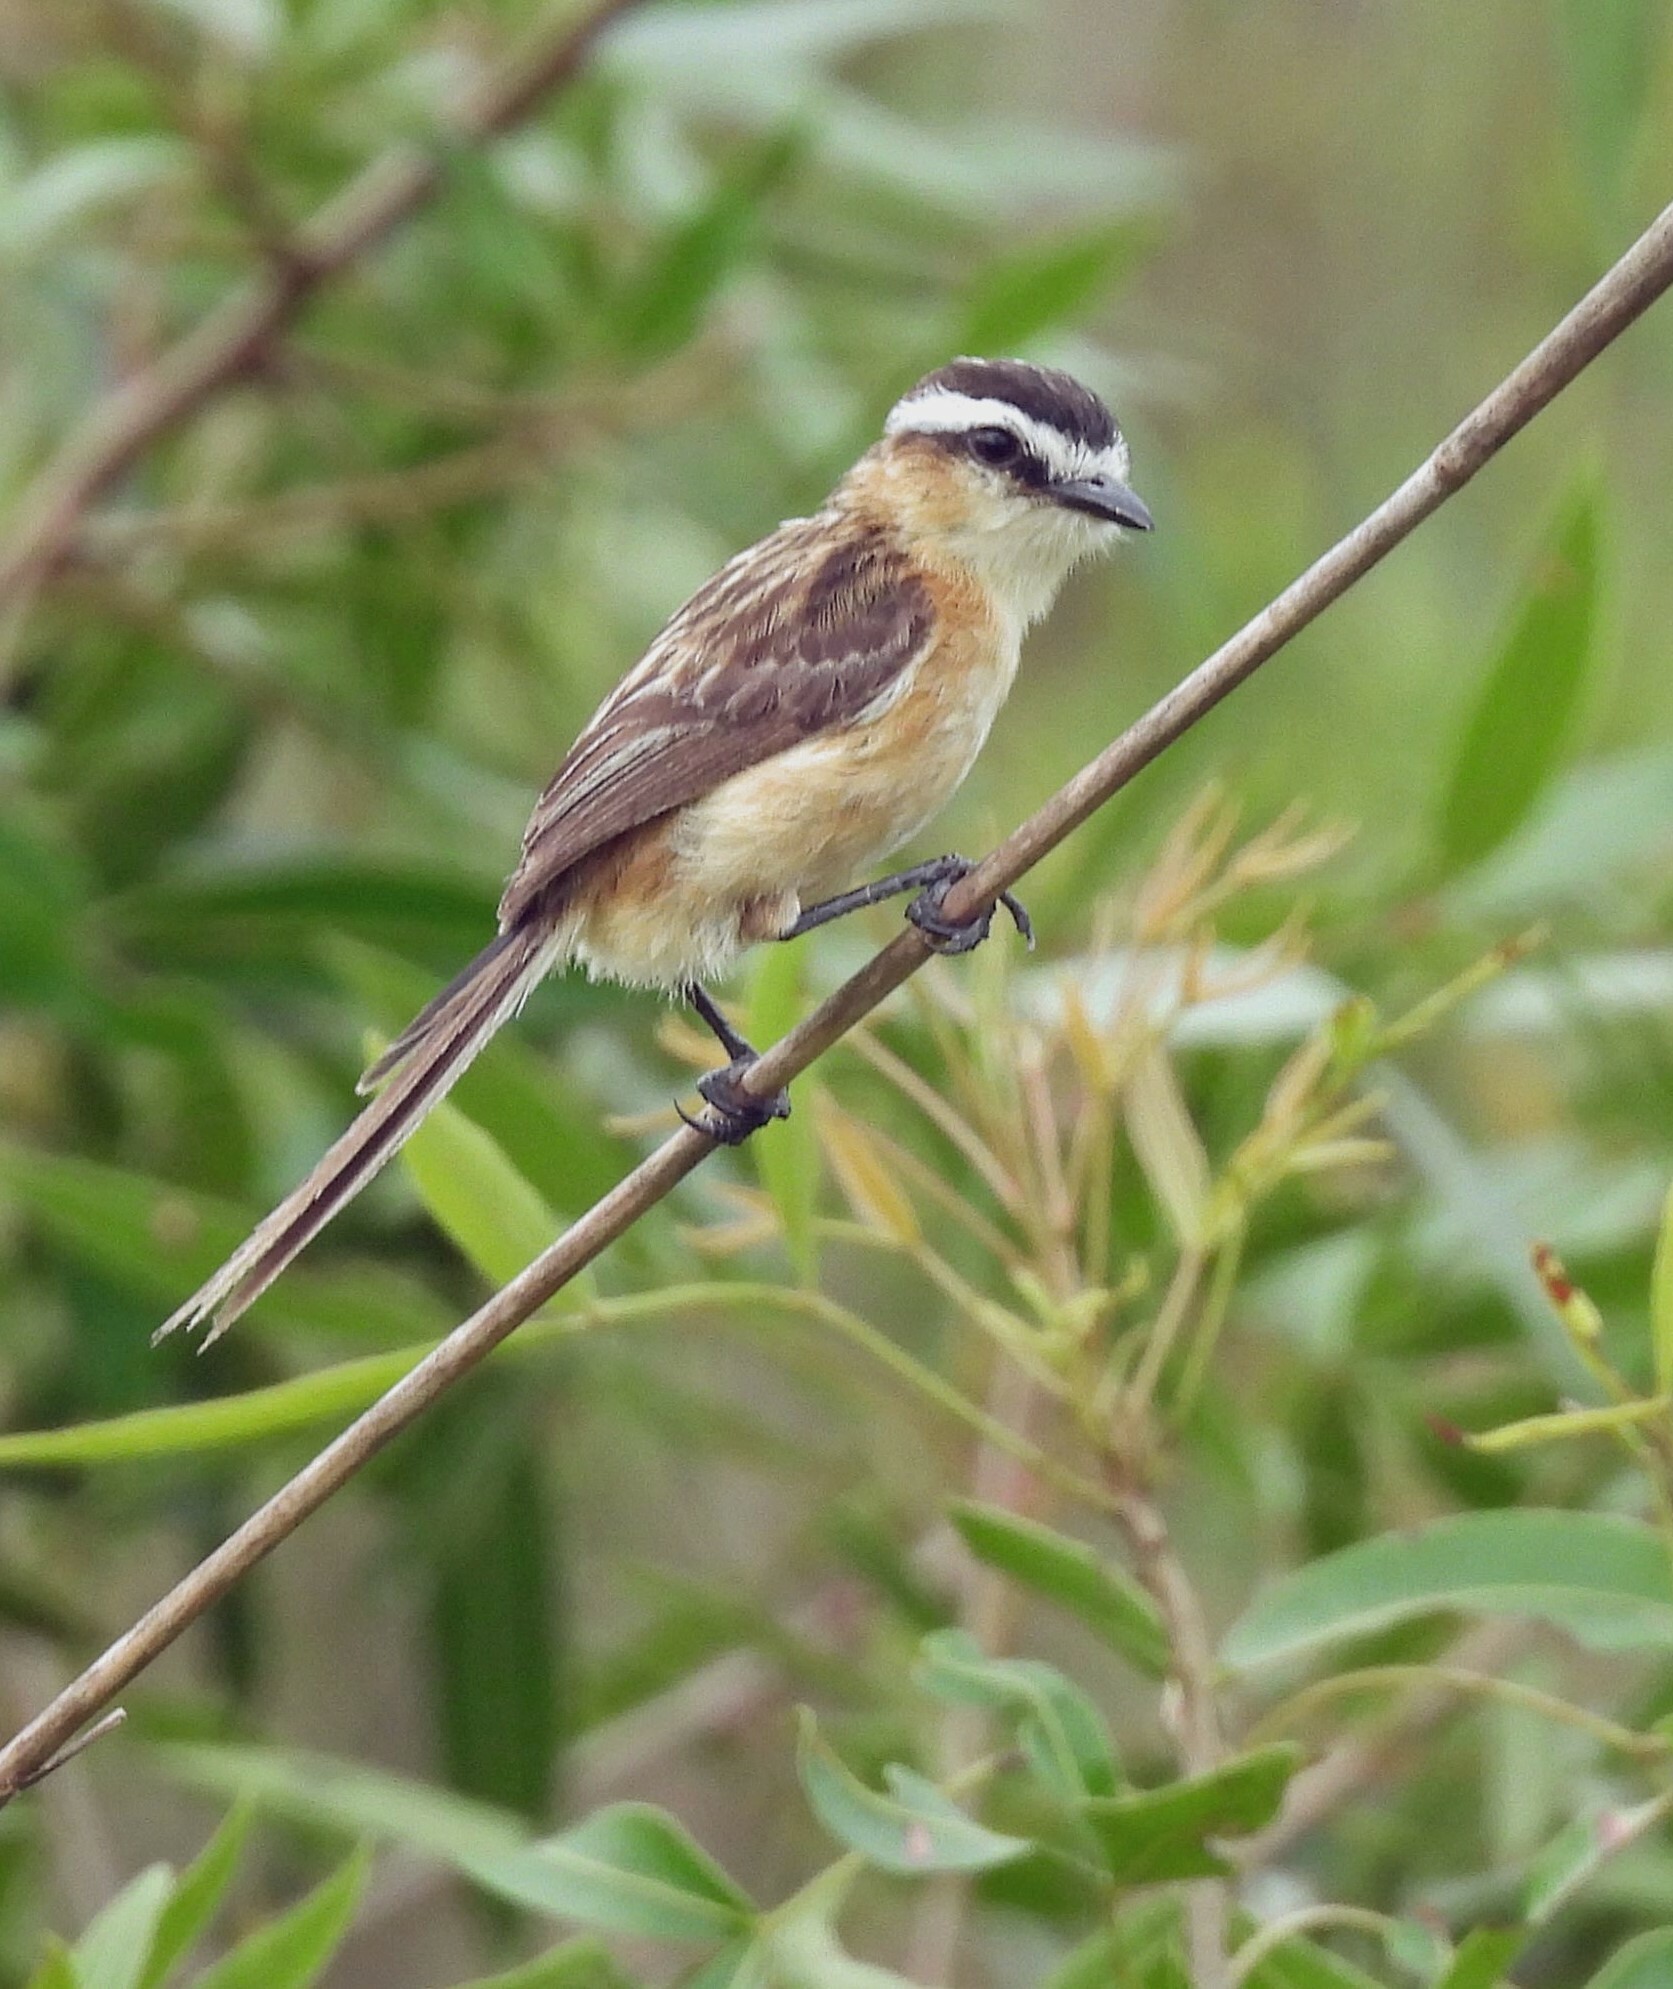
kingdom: Animalia
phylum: Chordata
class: Aves
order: Passeriformes
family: Tyrannidae
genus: Culicivora
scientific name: Culicivora caudacuta
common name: Sharp-tailed grass tyrant
